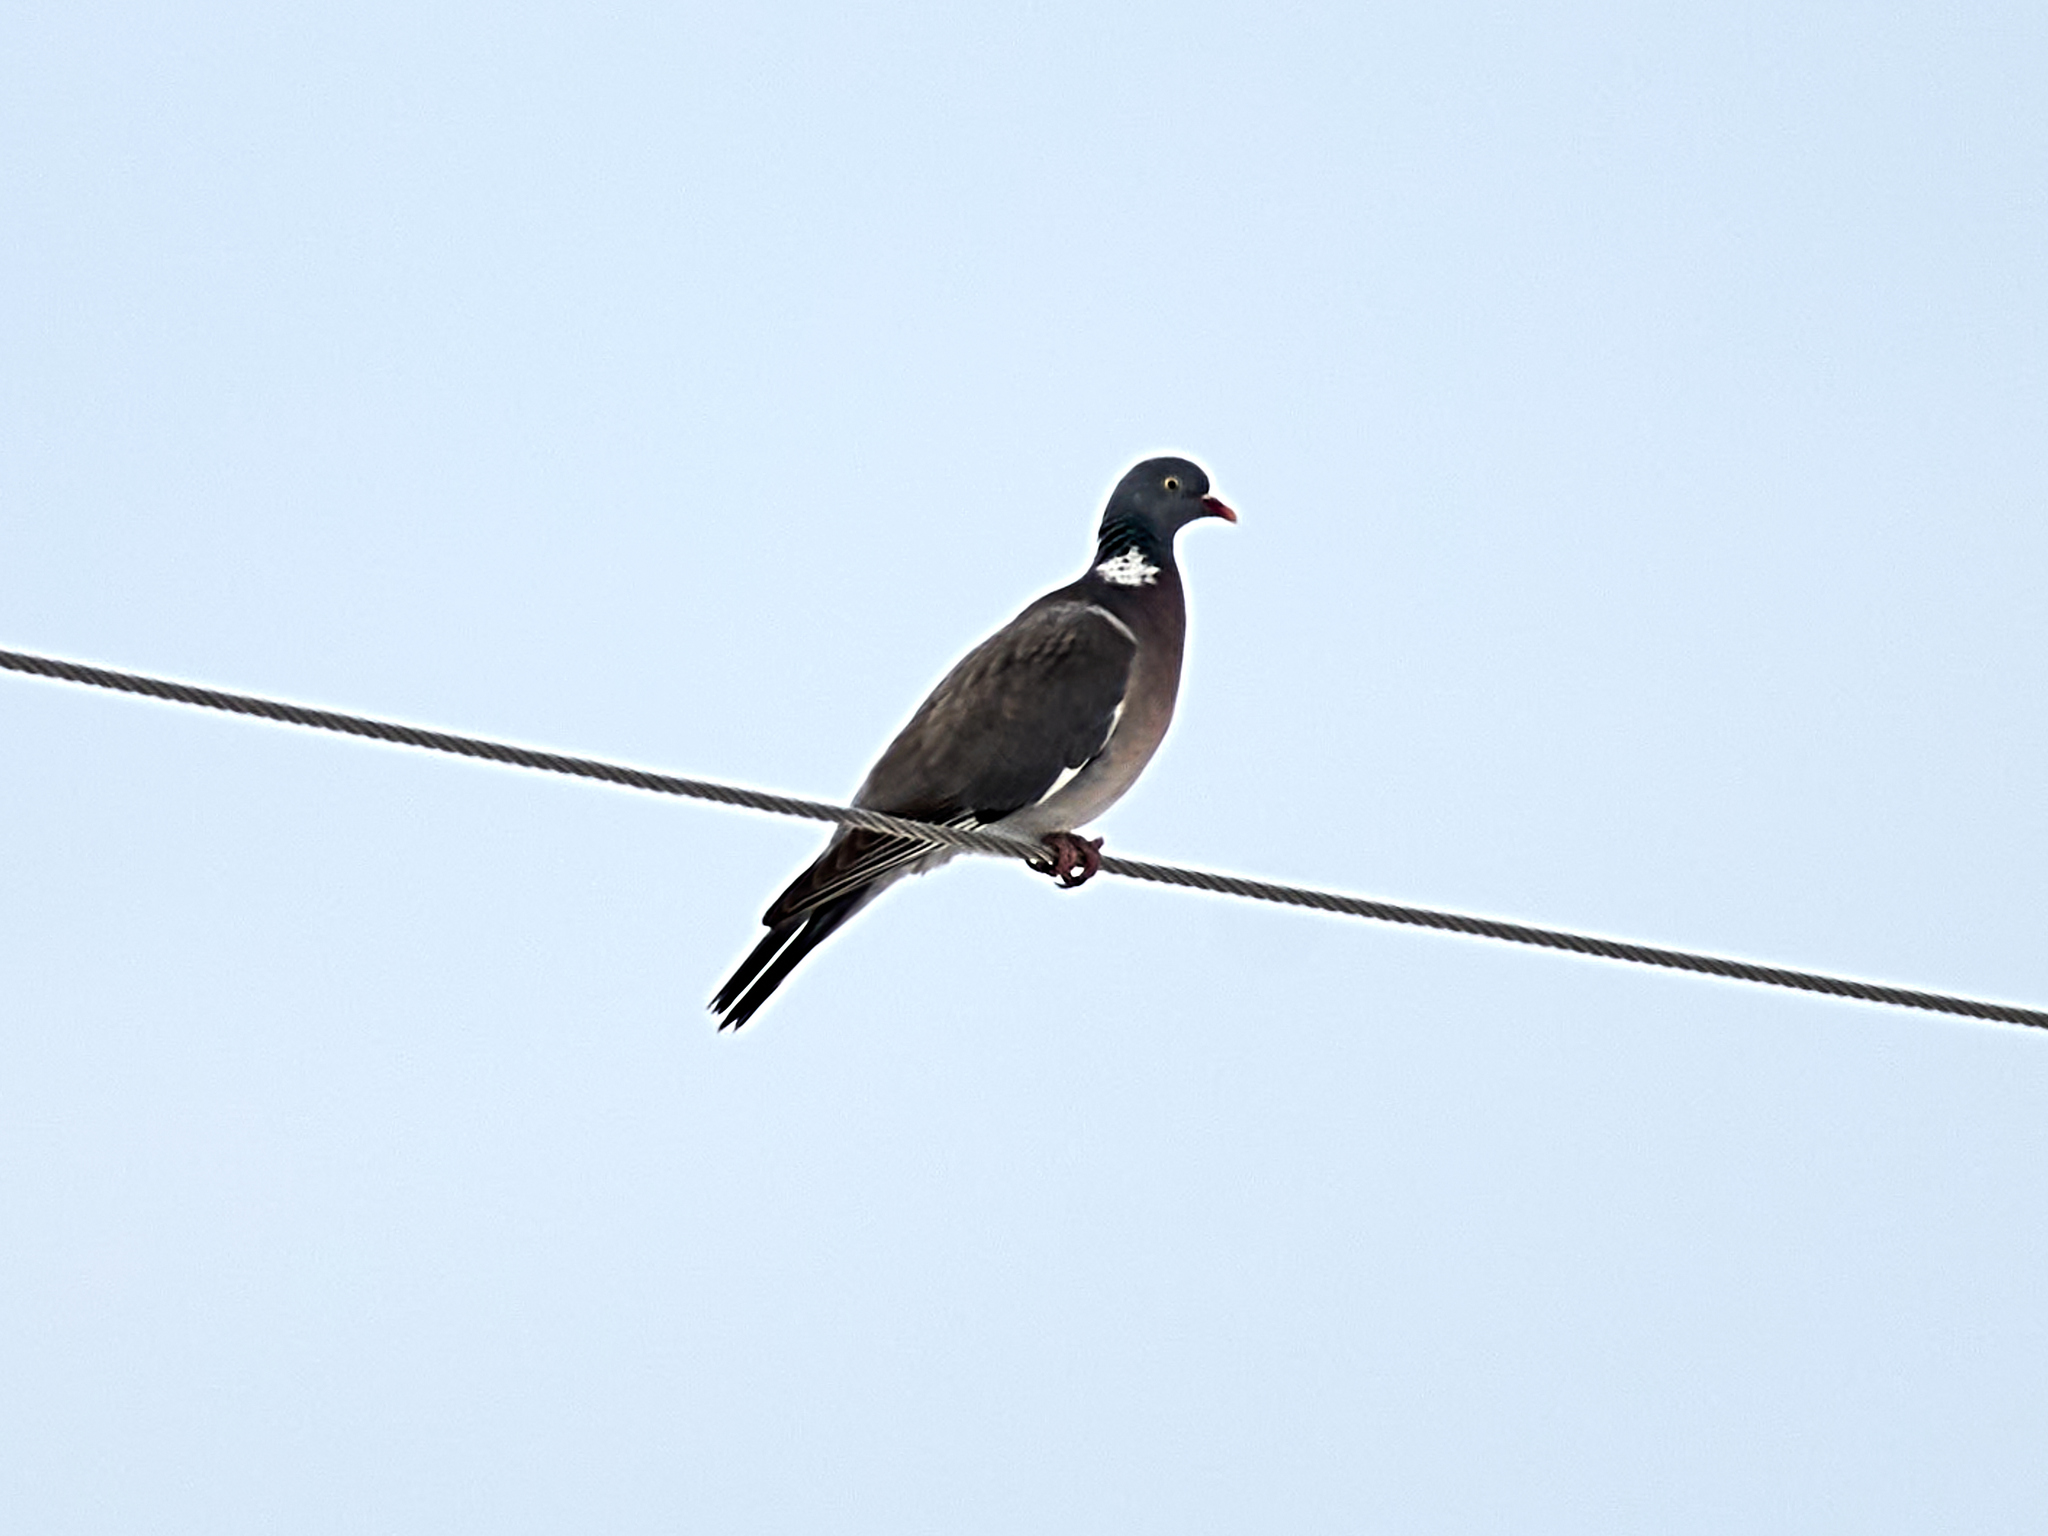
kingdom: Animalia
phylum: Chordata
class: Aves
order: Columbiformes
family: Columbidae
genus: Columba
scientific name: Columba palumbus
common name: Common wood pigeon
